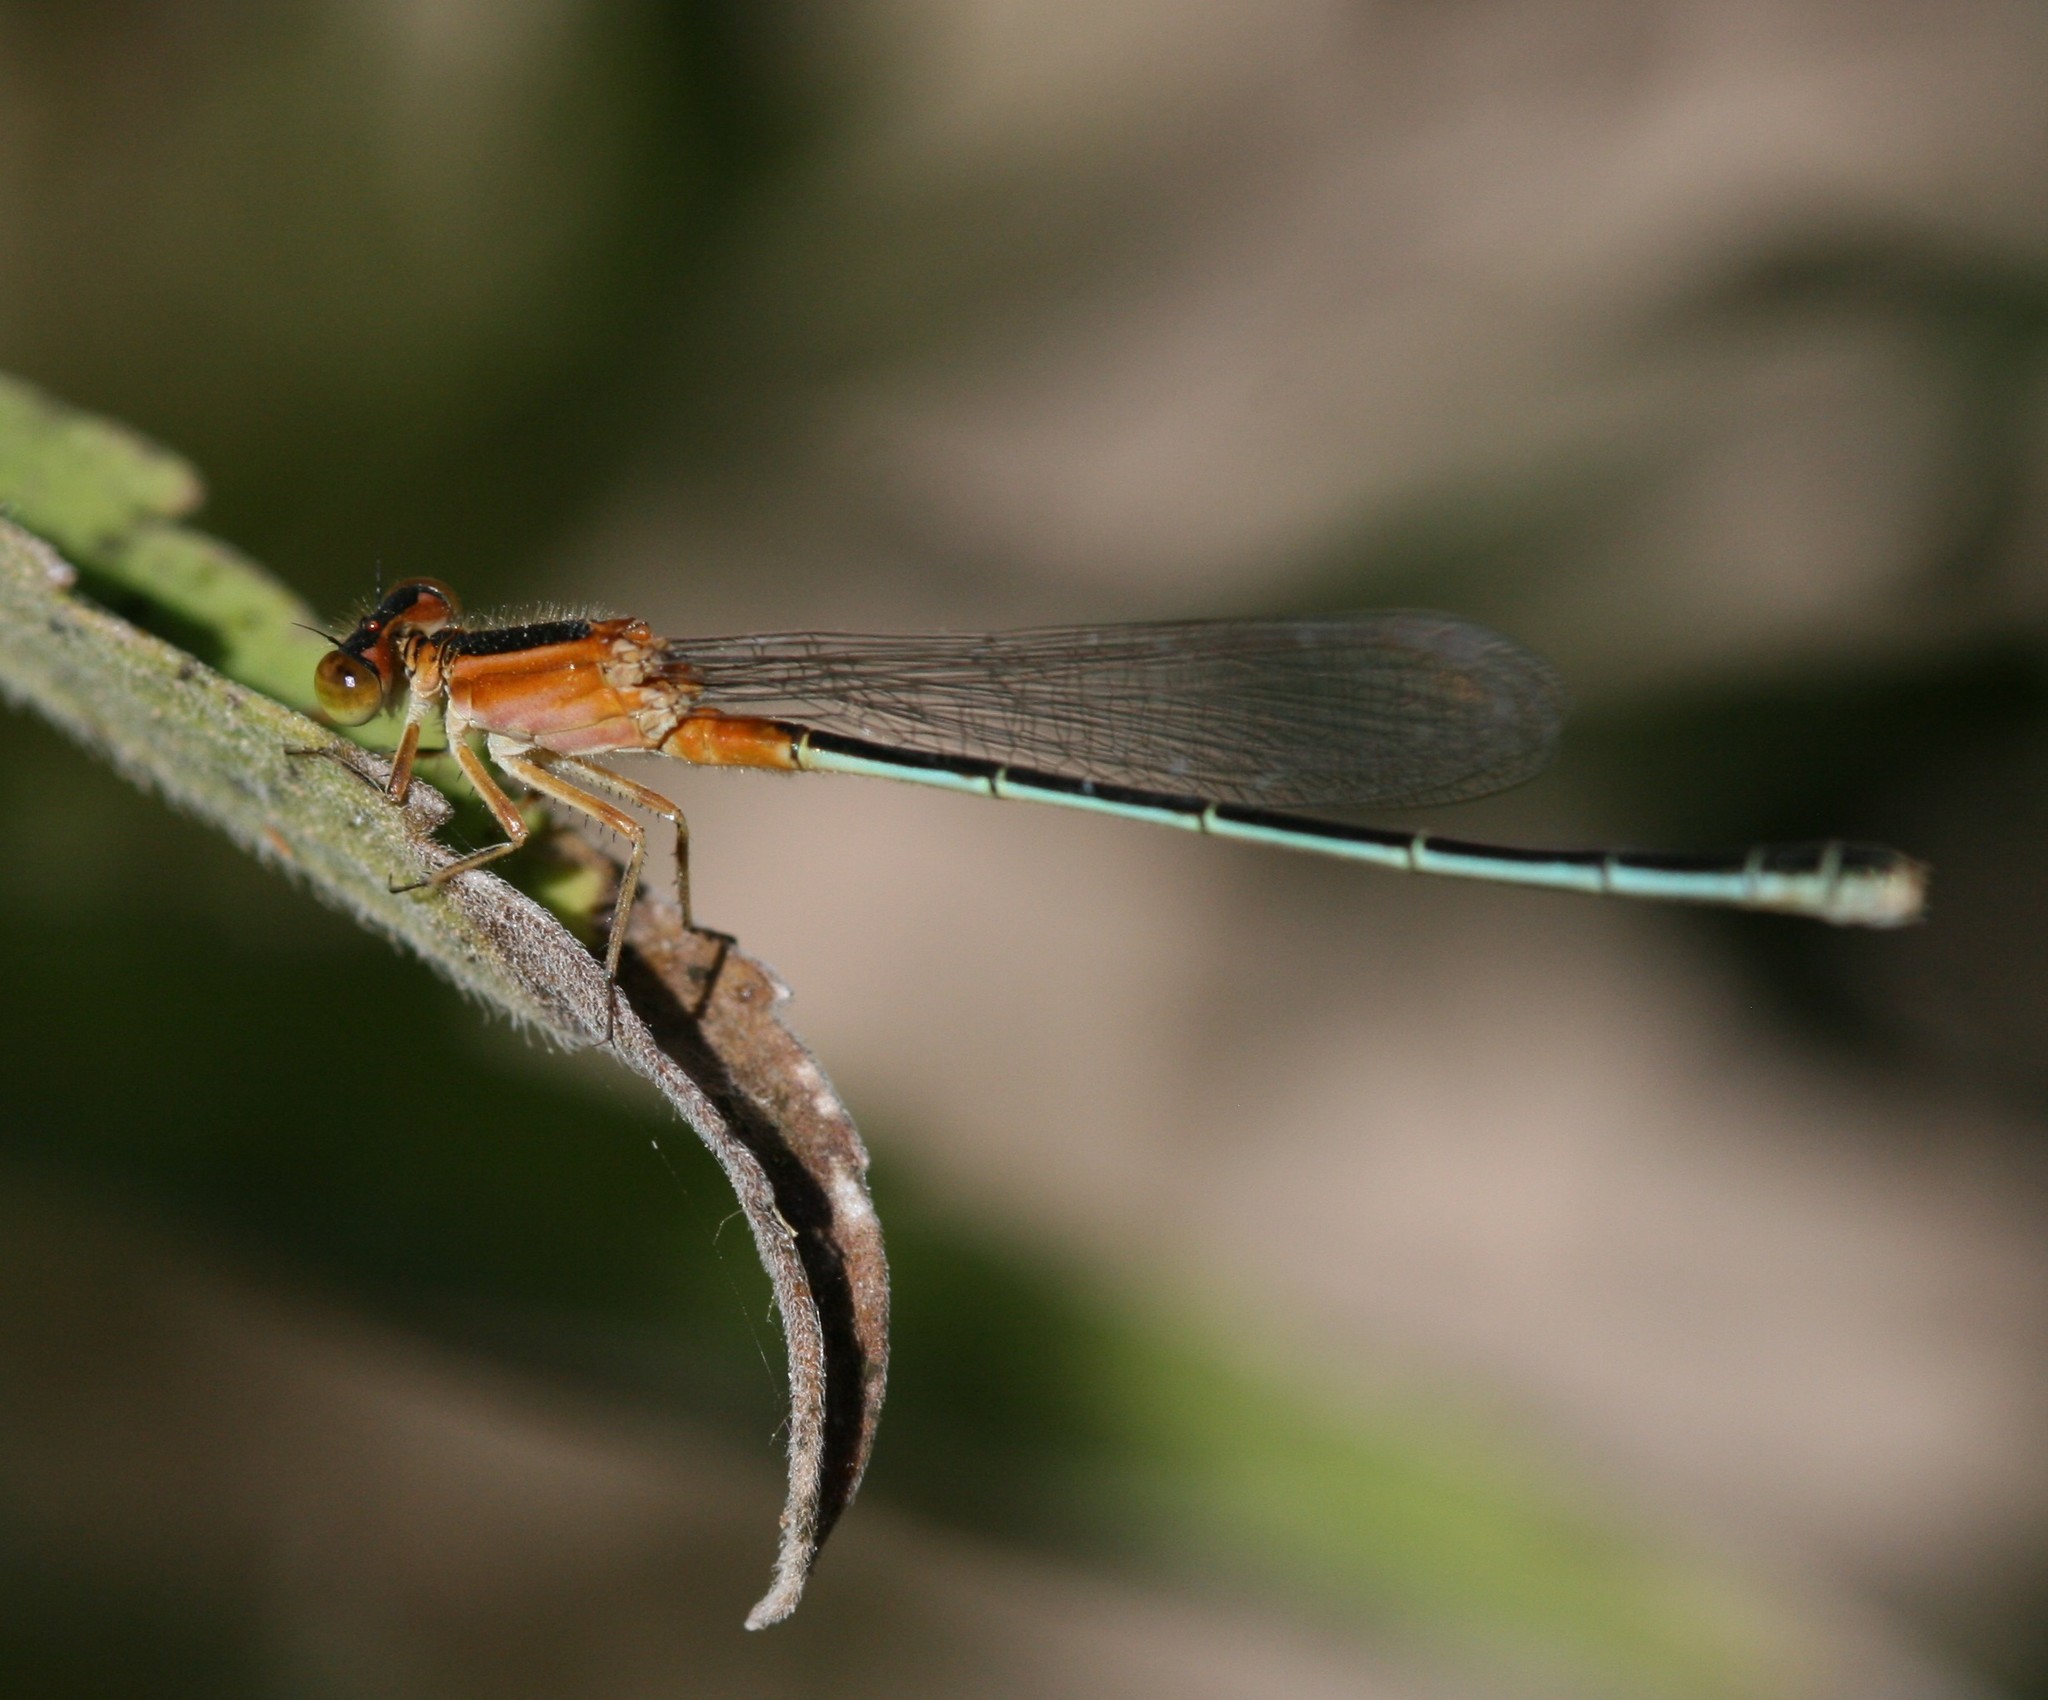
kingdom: Animalia
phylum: Arthropoda
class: Insecta
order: Odonata
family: Coenagrionidae
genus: Ischnura
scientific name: Ischnura senegalensis
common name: Tropical bluetail
